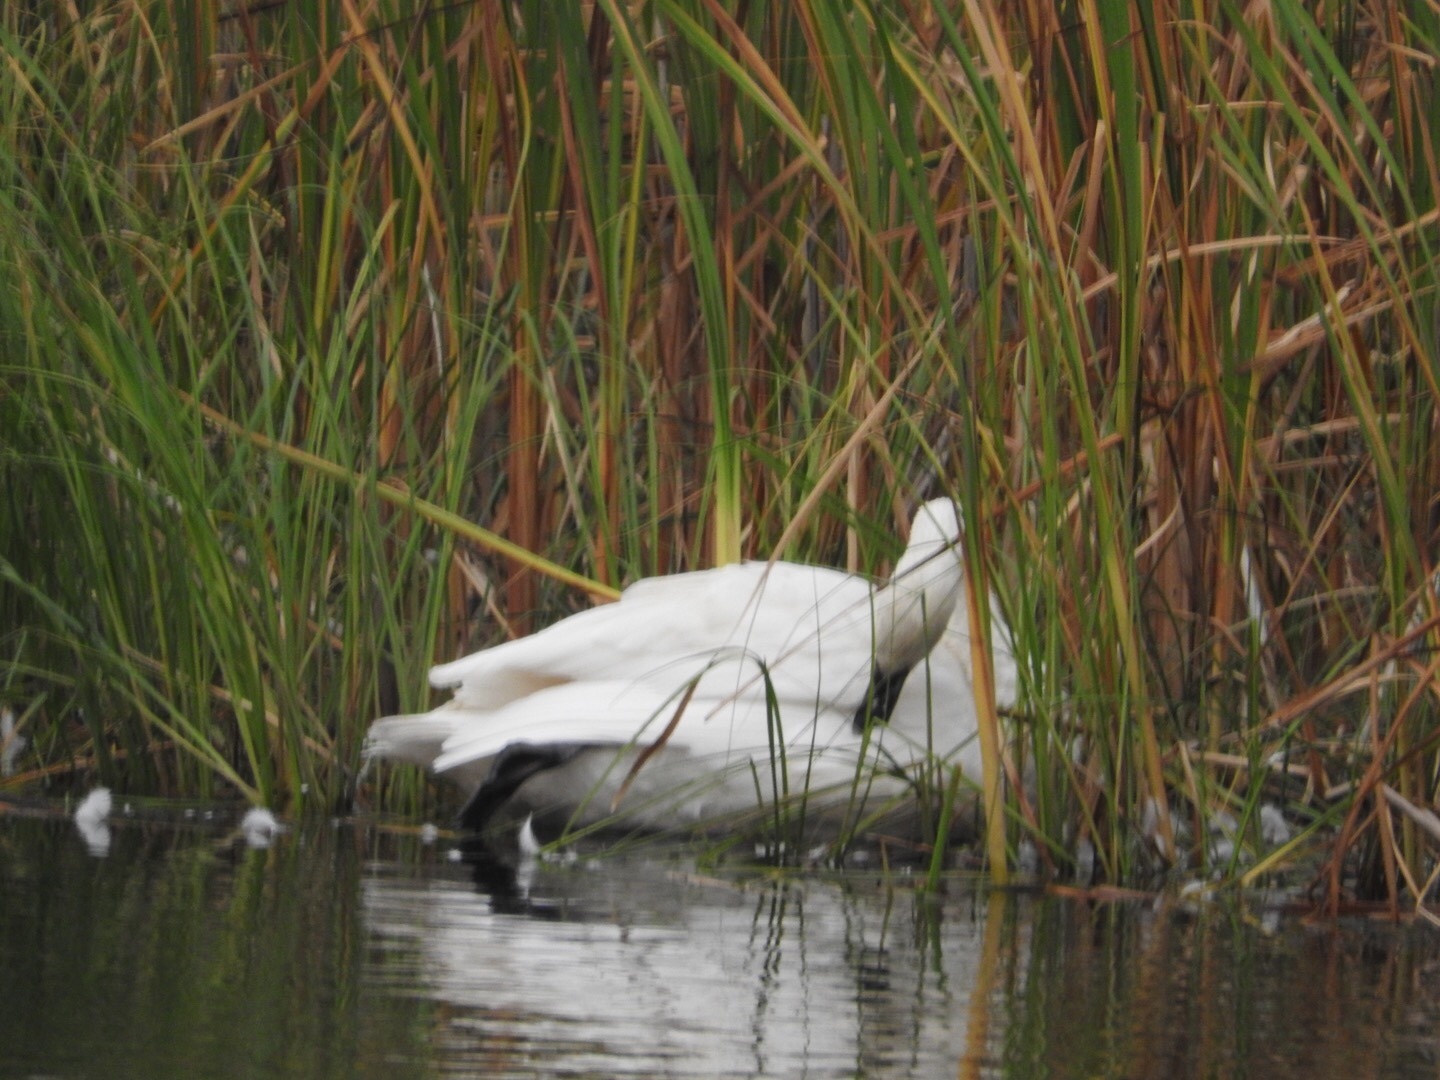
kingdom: Animalia
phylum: Chordata
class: Aves
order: Anseriformes
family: Anatidae
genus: Cygnus
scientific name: Cygnus buccinator
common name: Trumpeter swan
